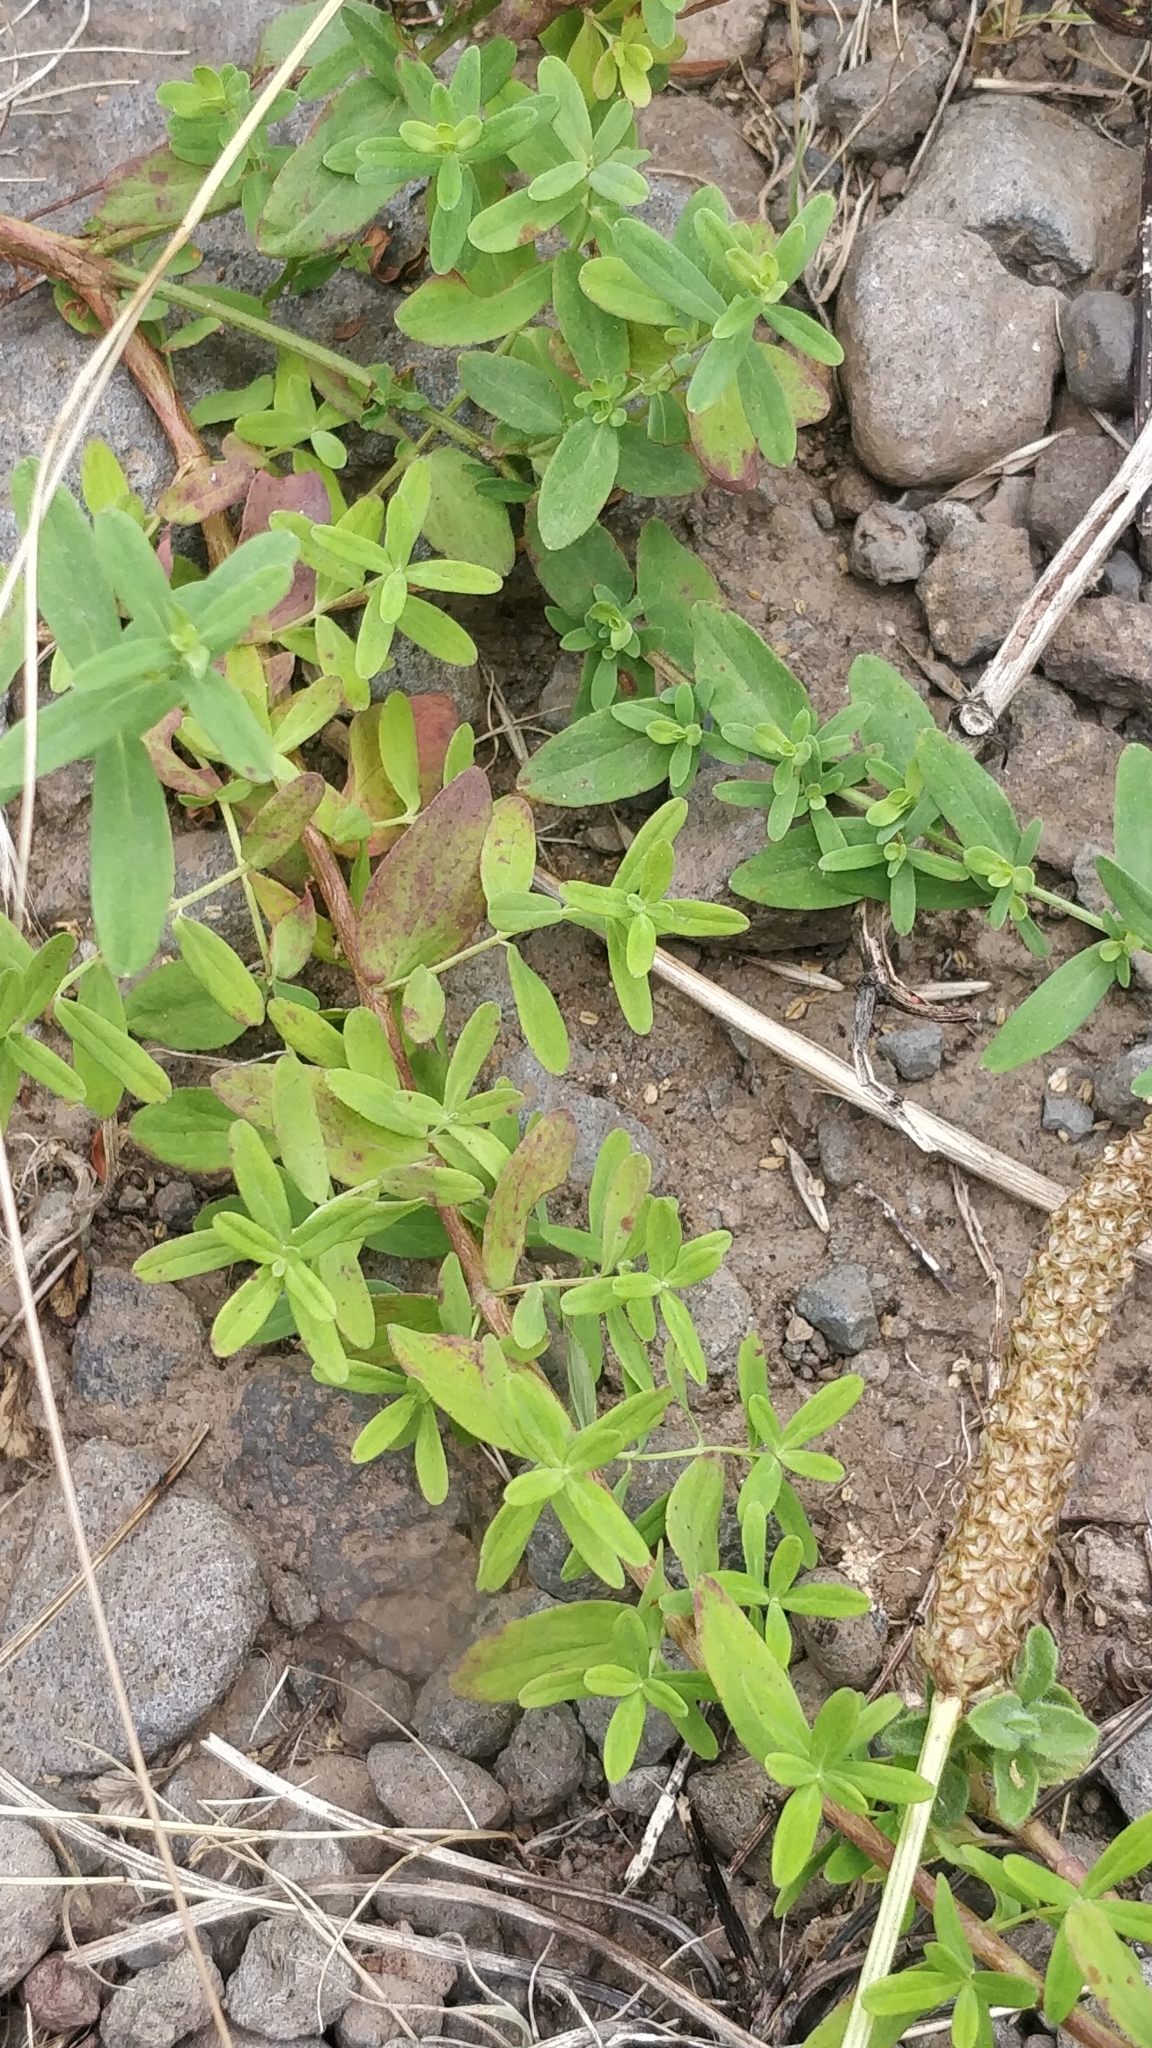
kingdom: Plantae
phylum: Tracheophyta
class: Magnoliopsida
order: Malpighiales
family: Hypericaceae
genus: Hypericum
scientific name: Hypericum perforatum
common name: Common st. johnswort
